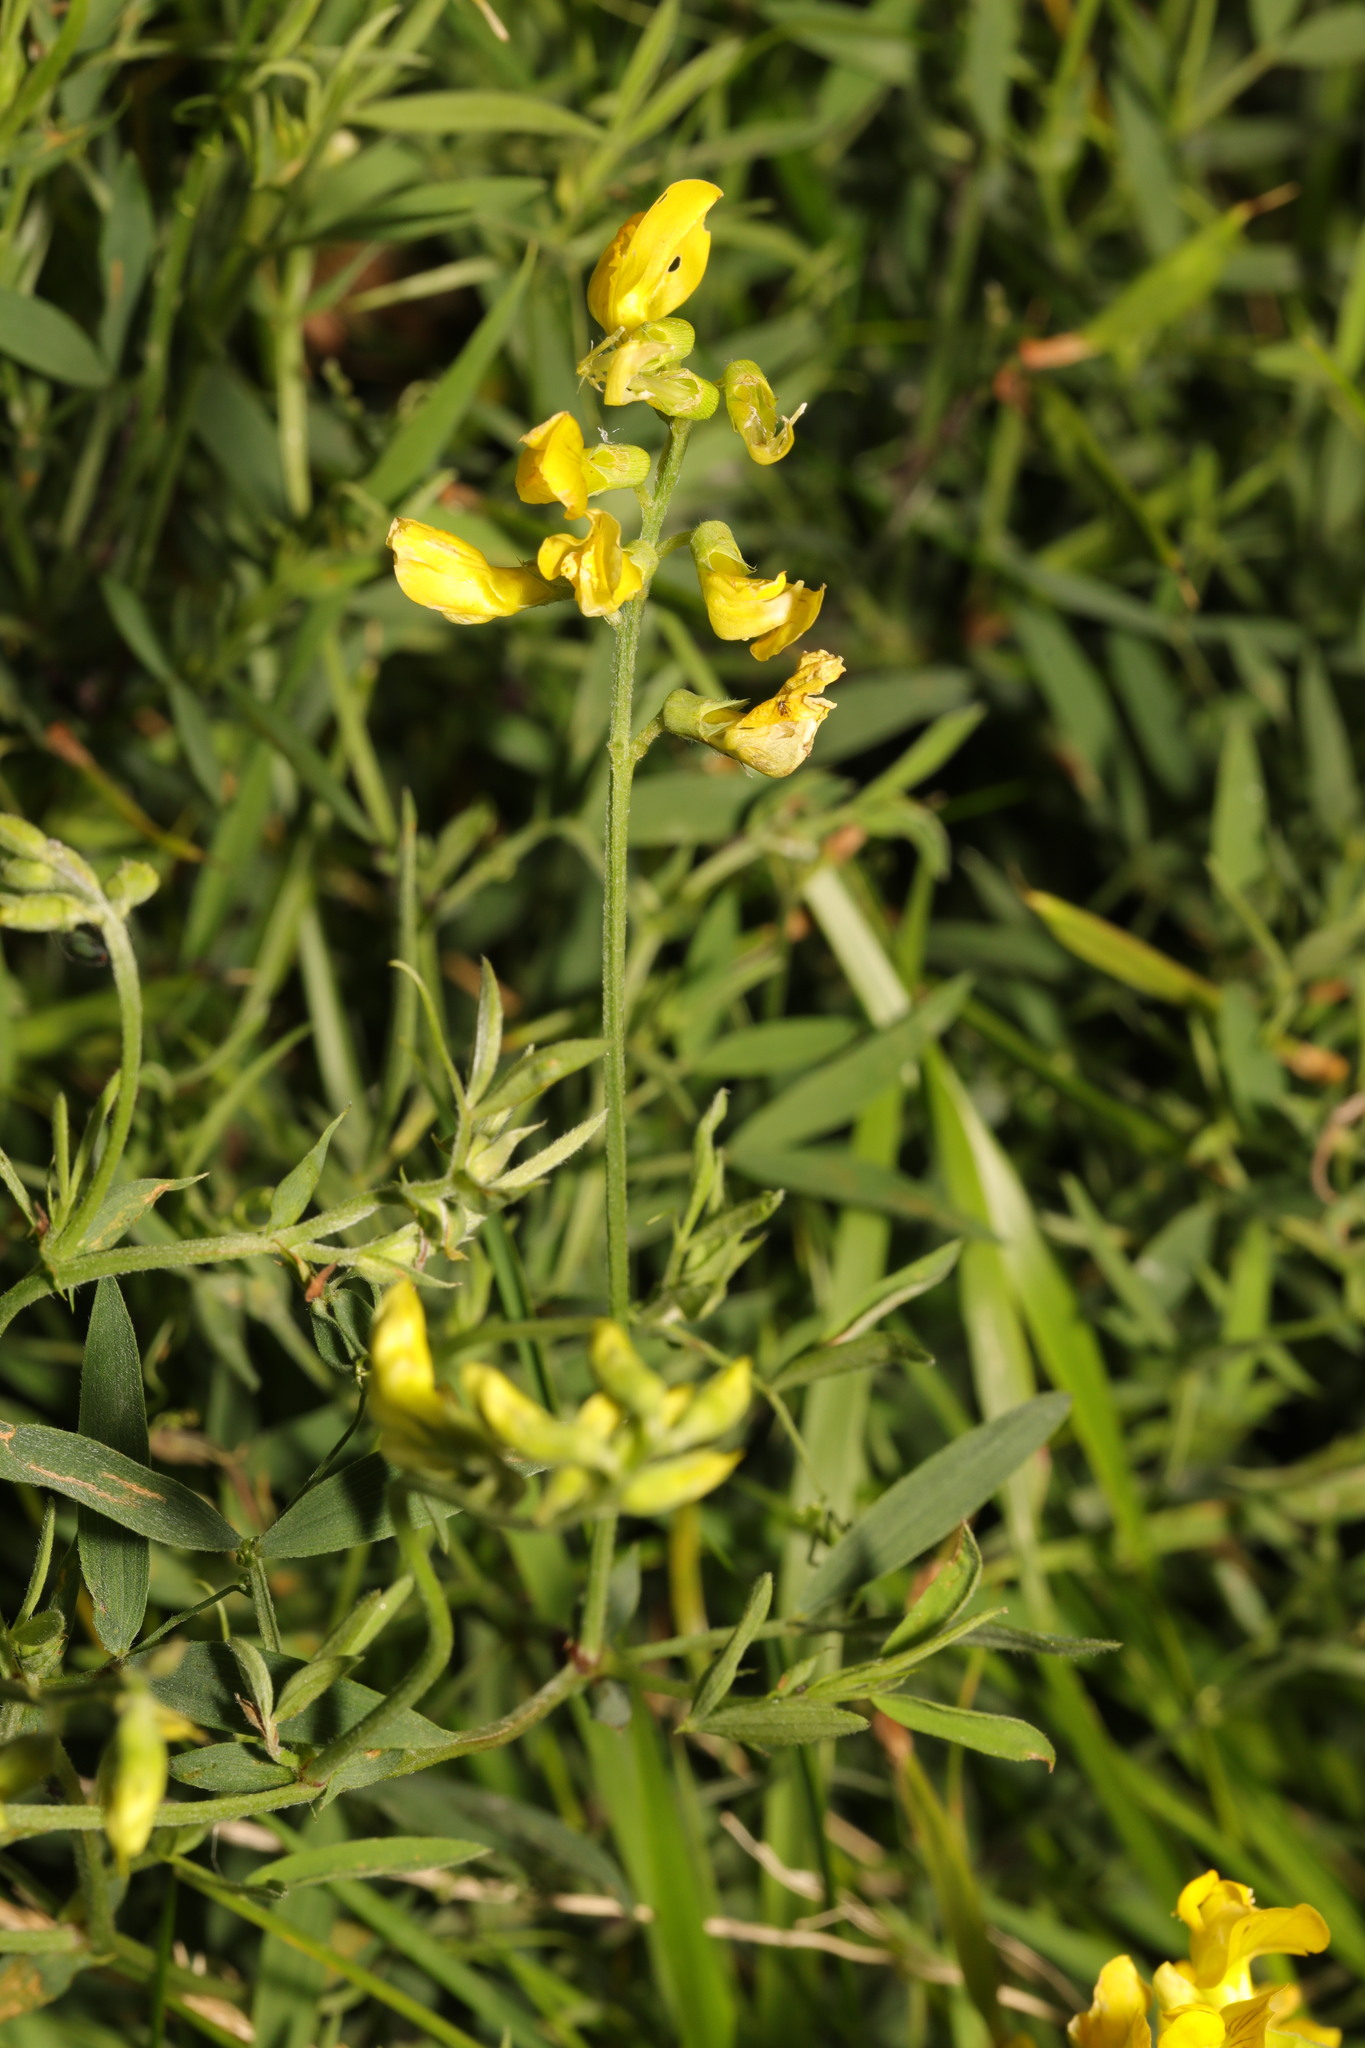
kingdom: Plantae
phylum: Tracheophyta
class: Magnoliopsida
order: Fabales
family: Fabaceae
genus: Lathyrus
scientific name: Lathyrus pratensis
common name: Meadow vetchling
